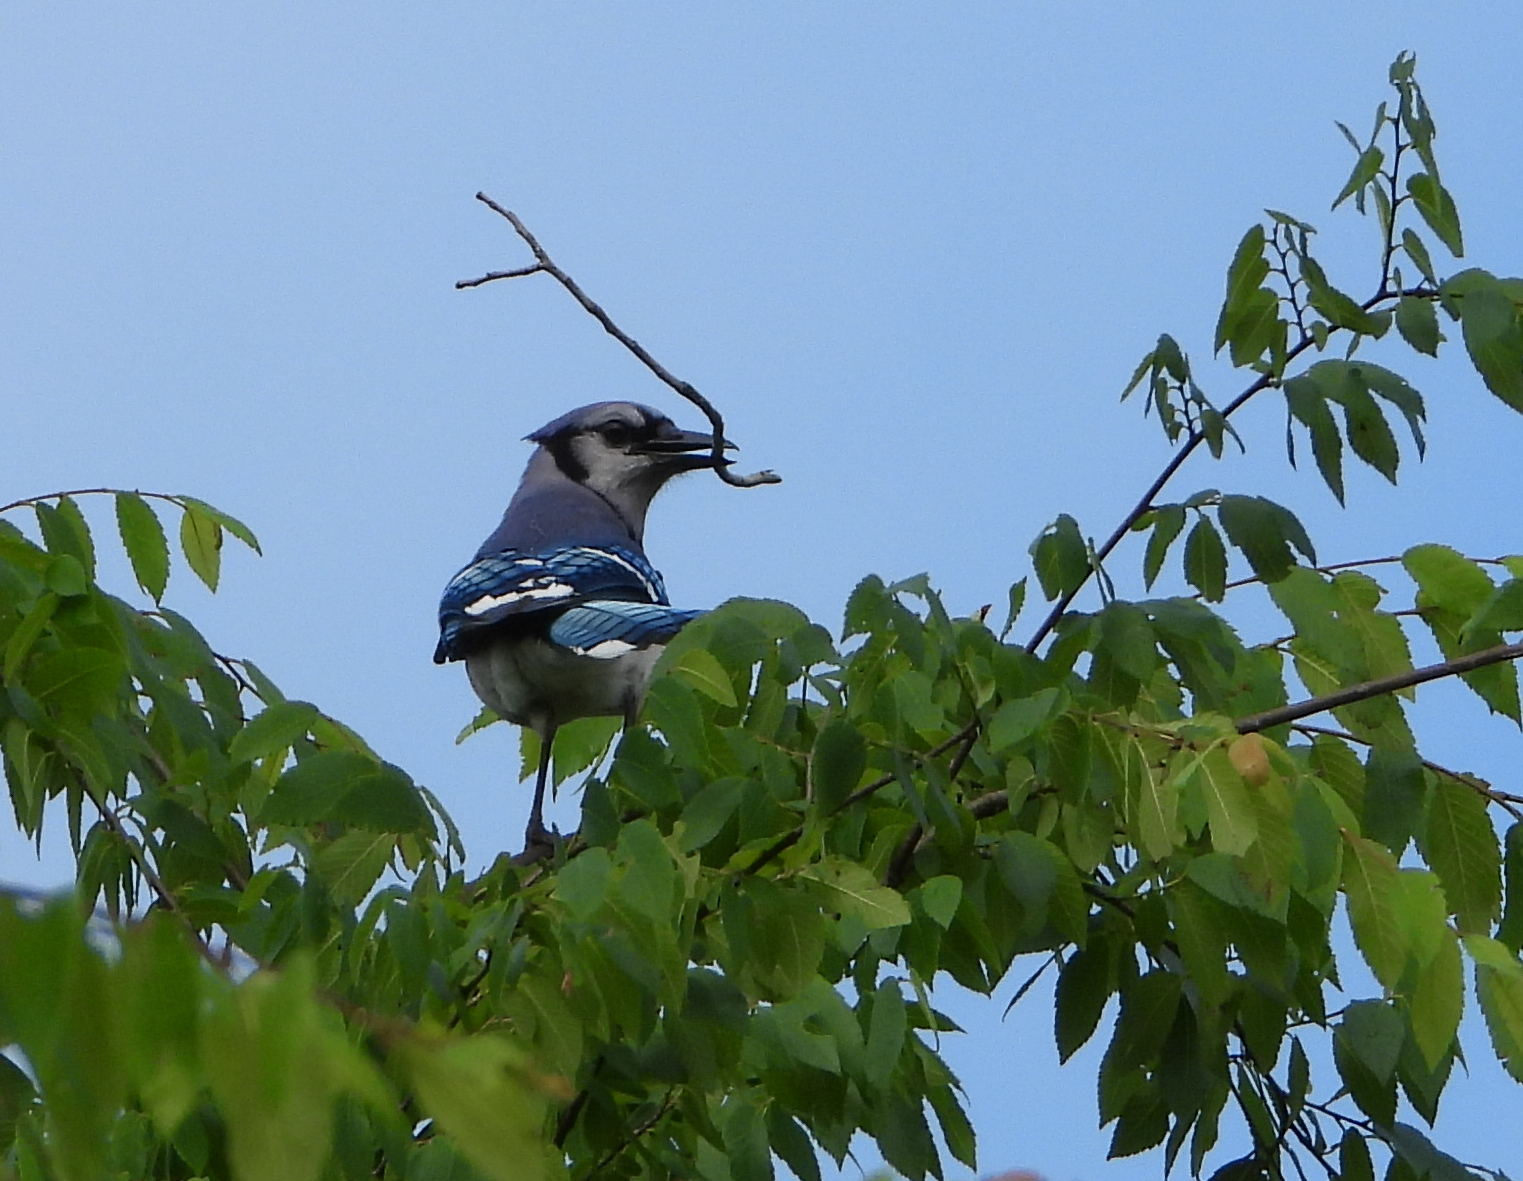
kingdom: Animalia
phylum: Chordata
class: Aves
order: Passeriformes
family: Corvidae
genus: Cyanocitta
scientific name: Cyanocitta cristata
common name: Blue jay
